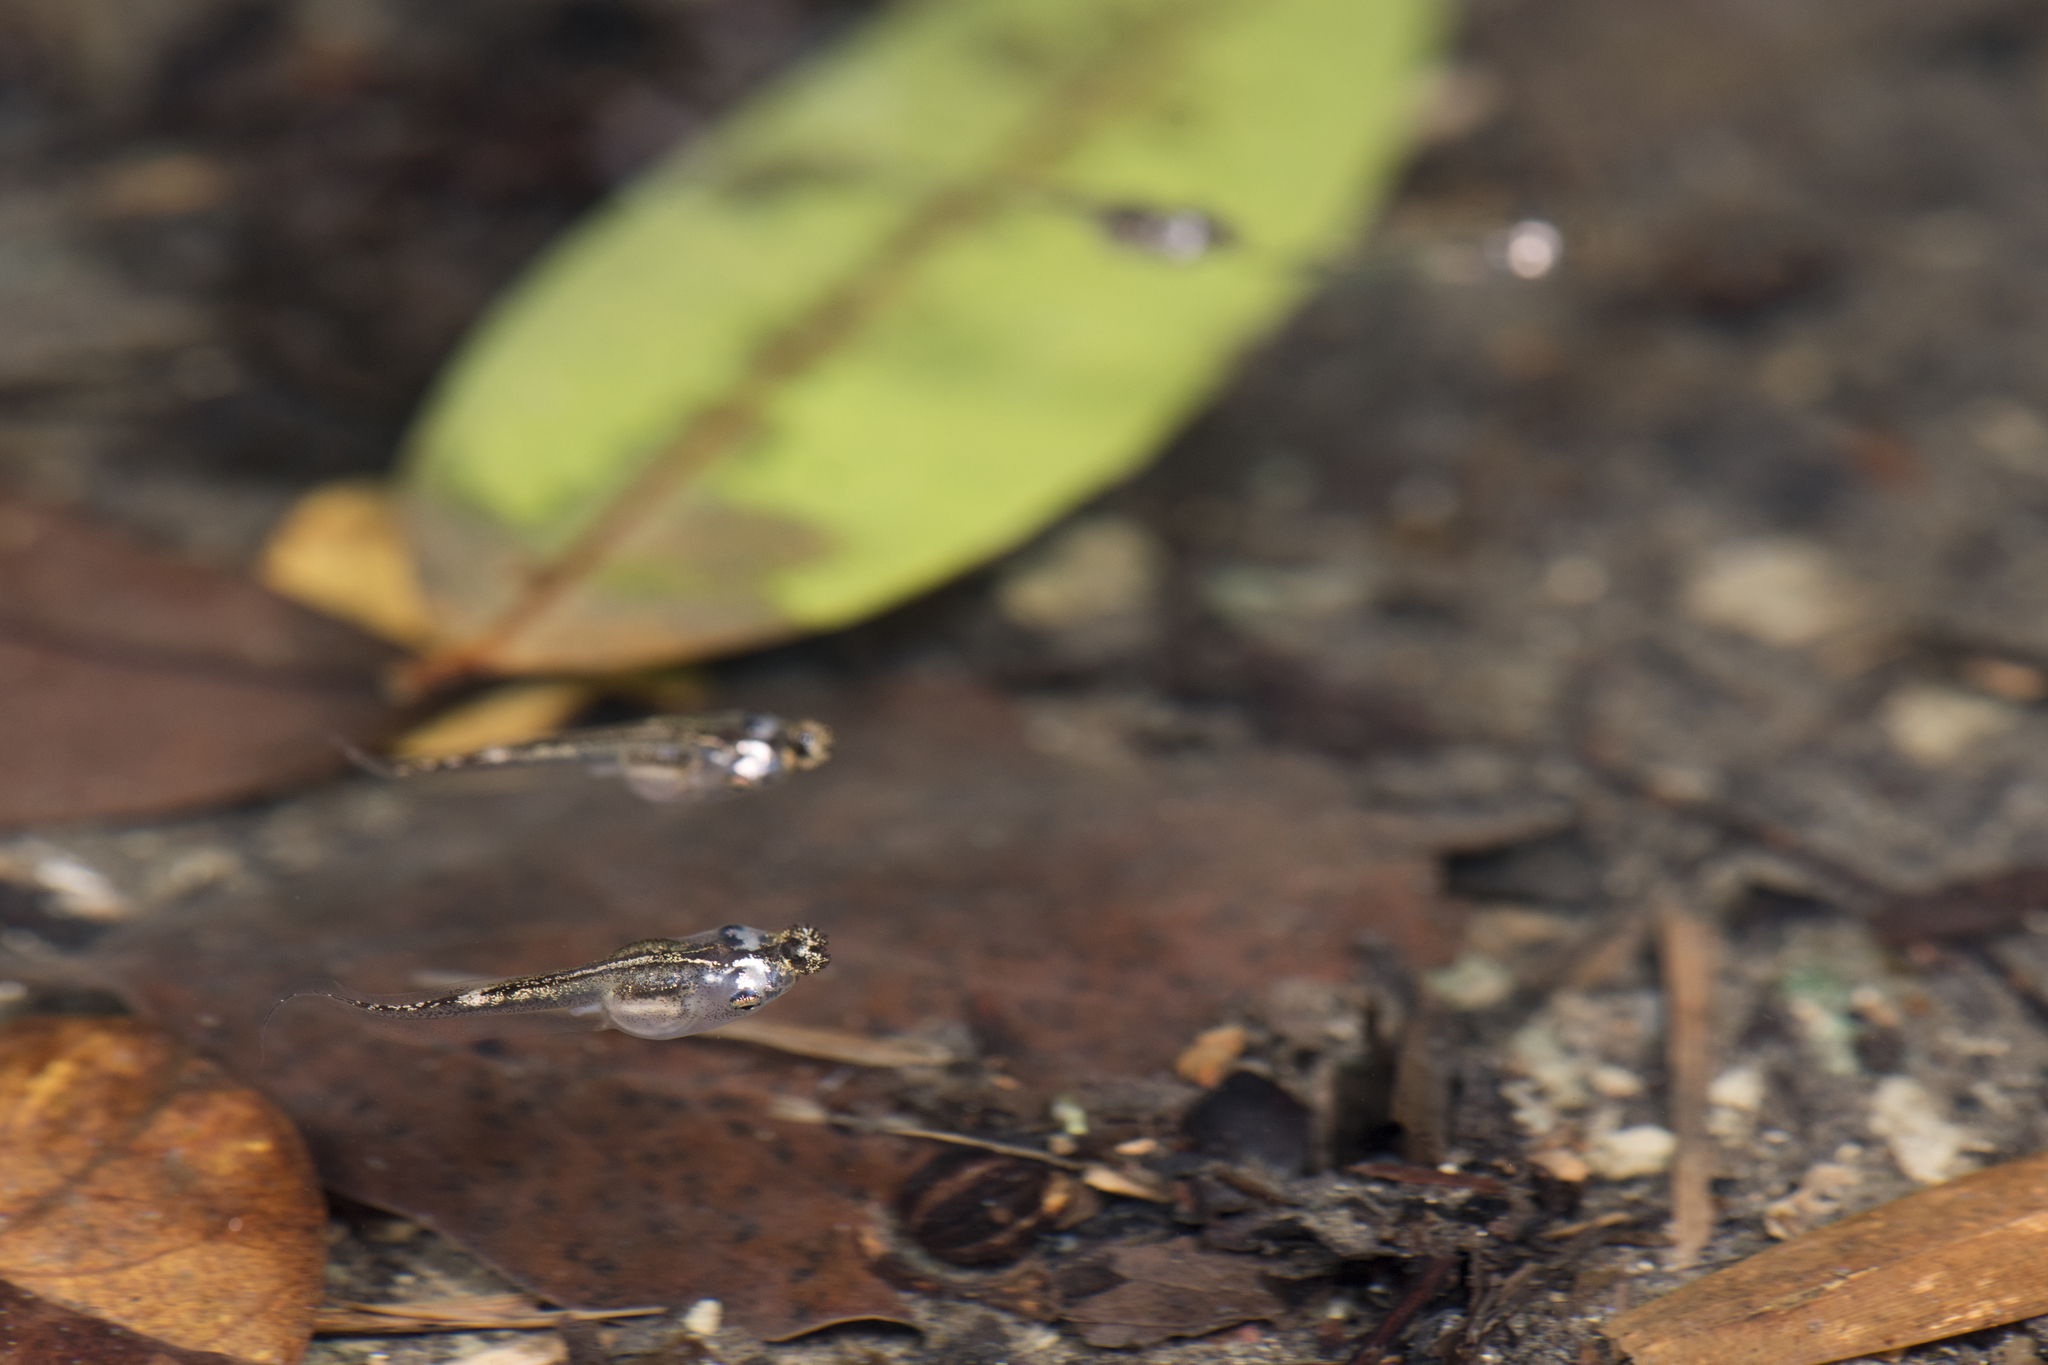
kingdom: Animalia
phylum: Chordata
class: Amphibia
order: Anura
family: Microhylidae
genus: Microhyla
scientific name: Microhyla heymonsi
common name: Taiwan rice frog,dark sided chorus frog
